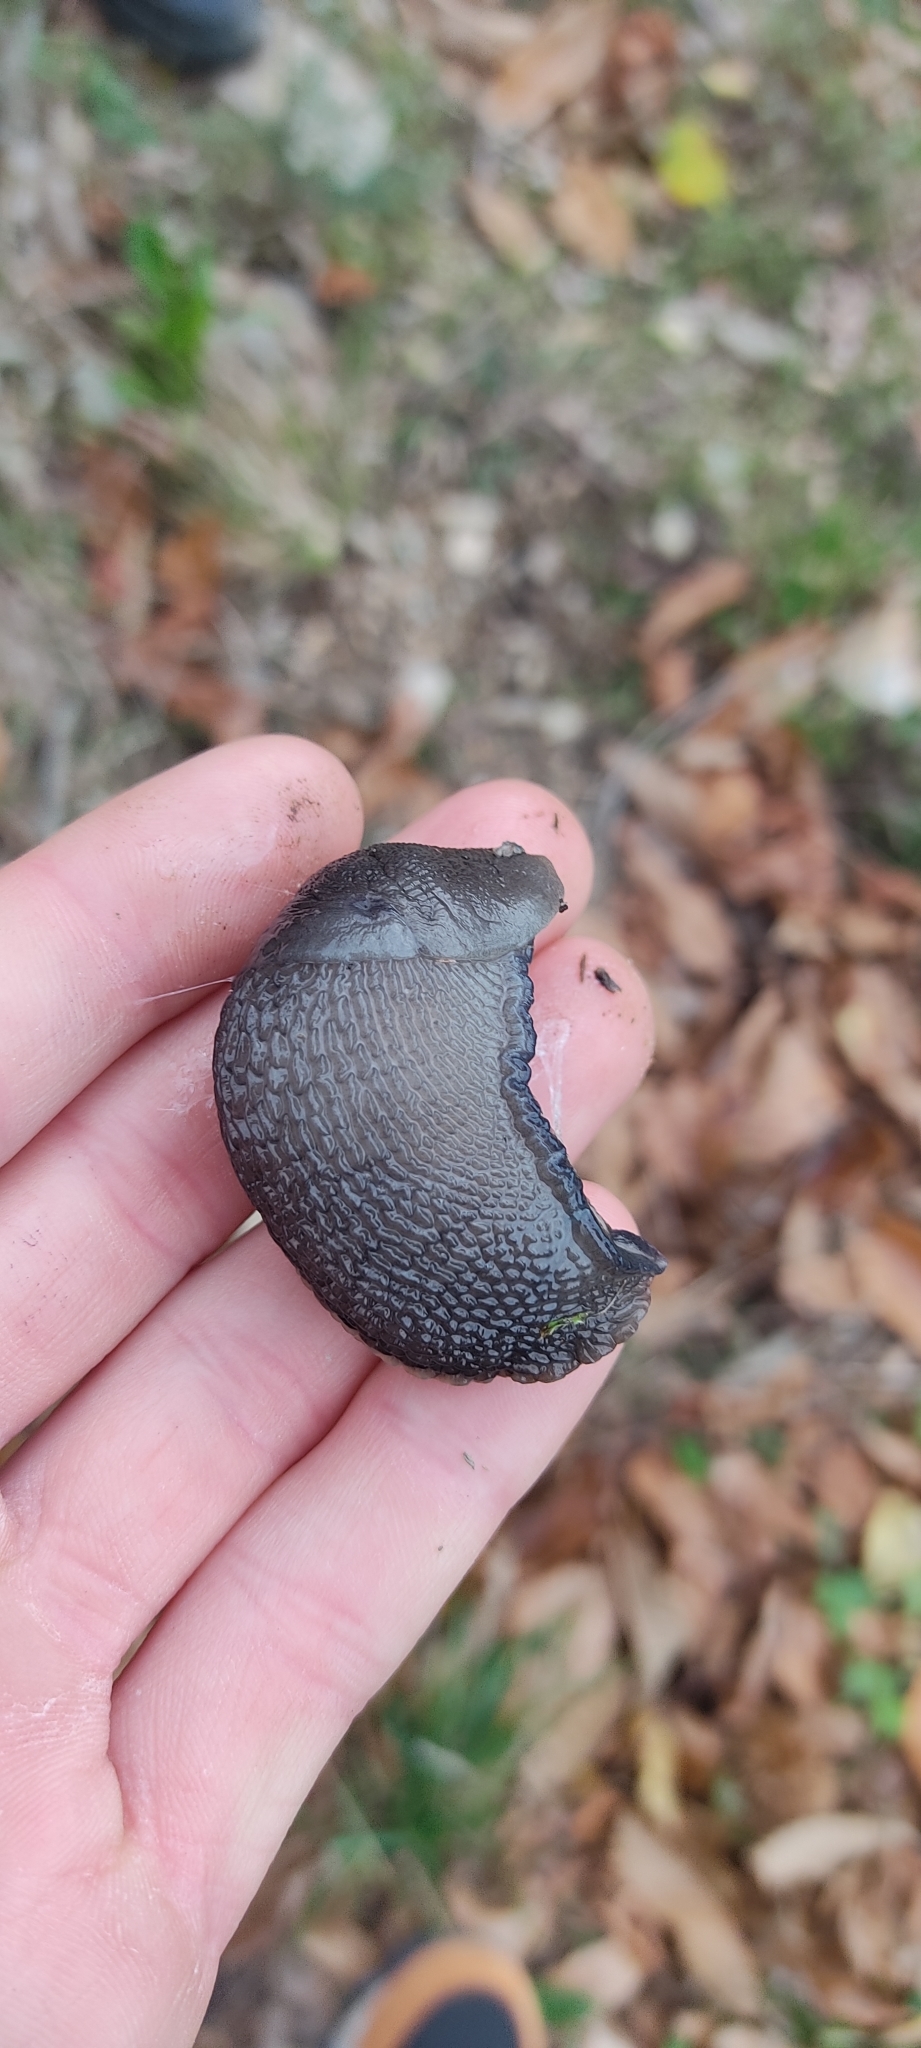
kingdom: Animalia
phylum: Mollusca
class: Gastropoda
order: Stylommatophora
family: Limacidae
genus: Limax
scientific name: Limax cinereoniger
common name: Ash-black slug
